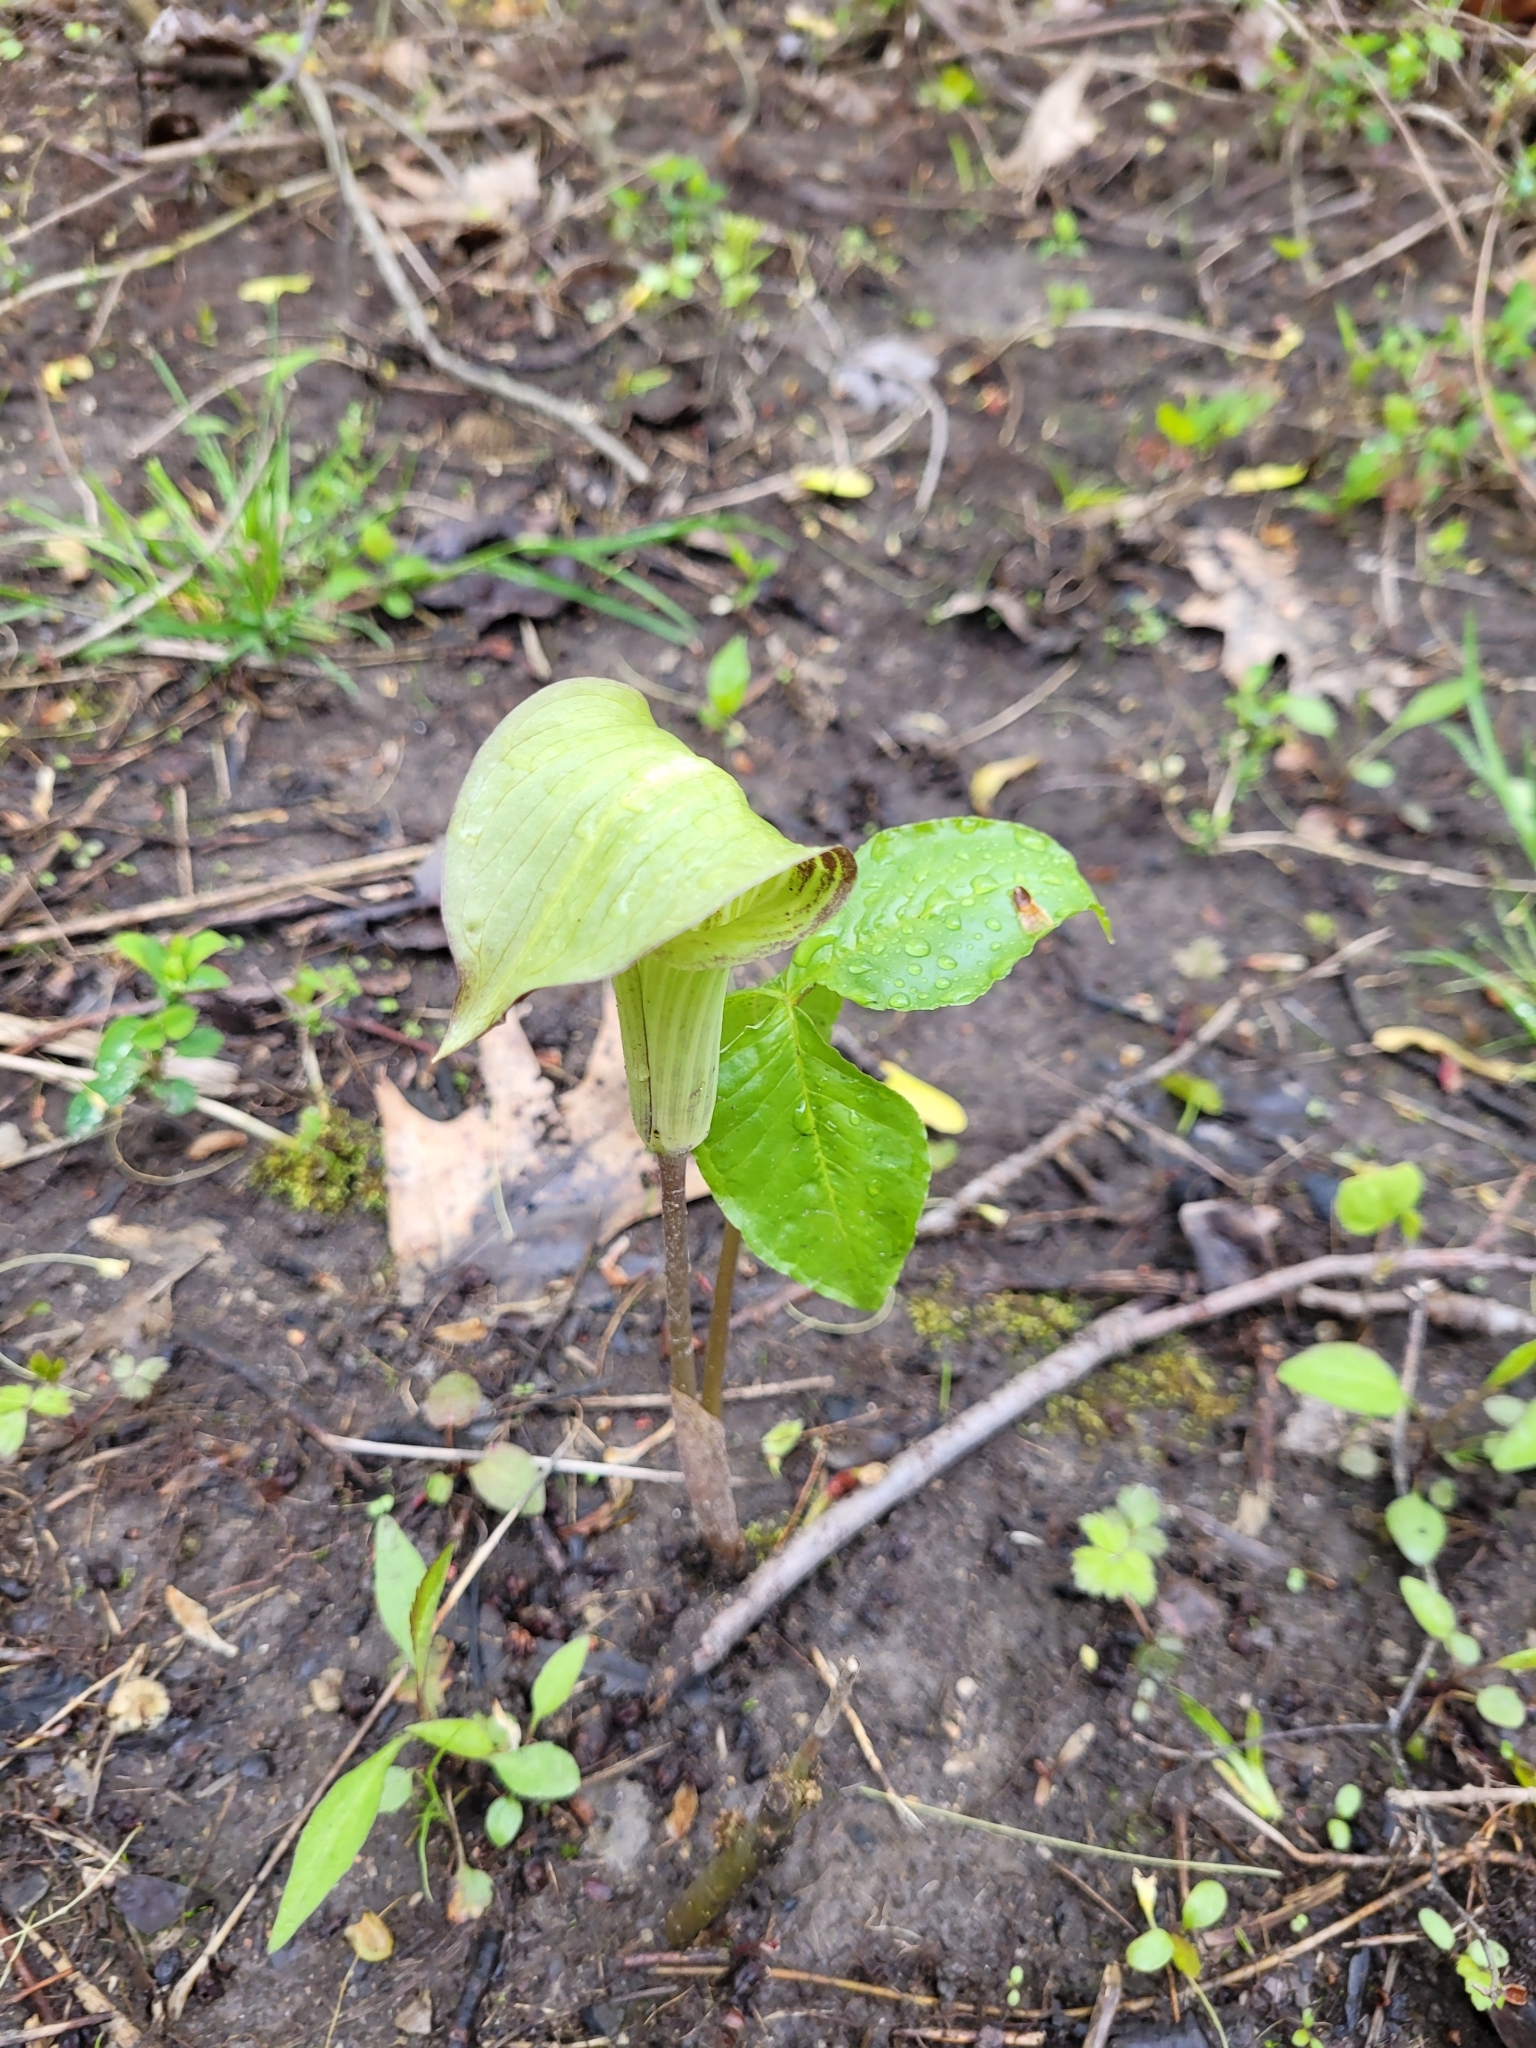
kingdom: Plantae
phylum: Tracheophyta
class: Liliopsida
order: Alismatales
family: Araceae
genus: Arisaema
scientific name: Arisaema triphyllum
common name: Jack-in-the-pulpit
